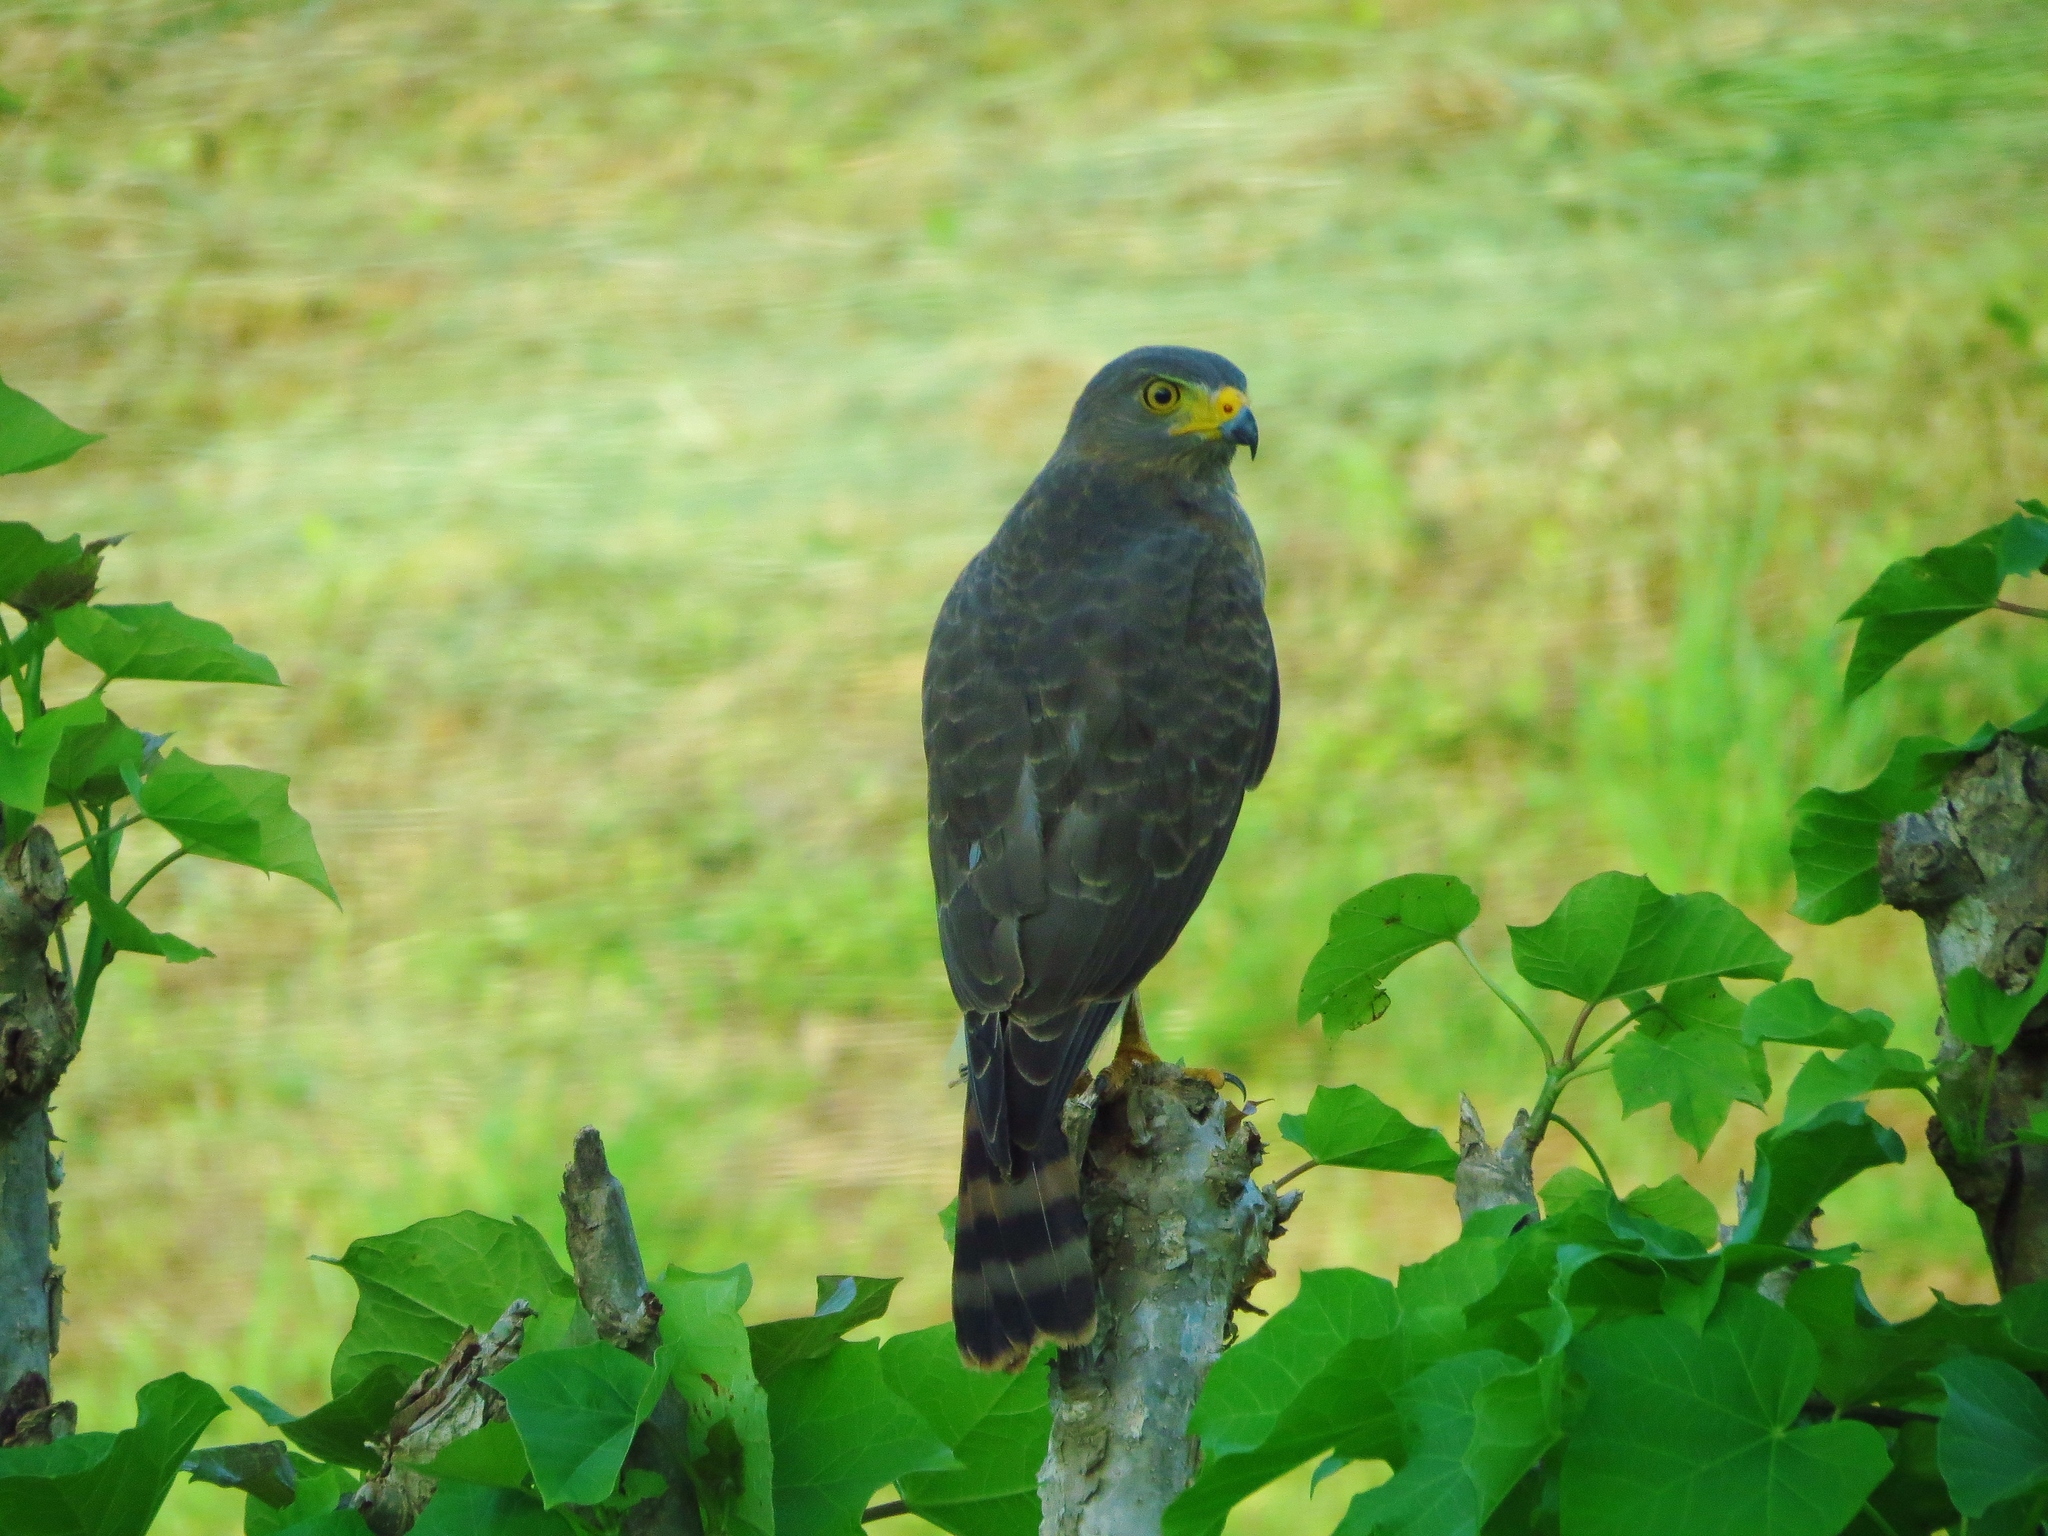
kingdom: Animalia
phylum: Chordata
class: Aves
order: Accipitriformes
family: Accipitridae
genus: Rupornis
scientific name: Rupornis magnirostris
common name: Roadside hawk
